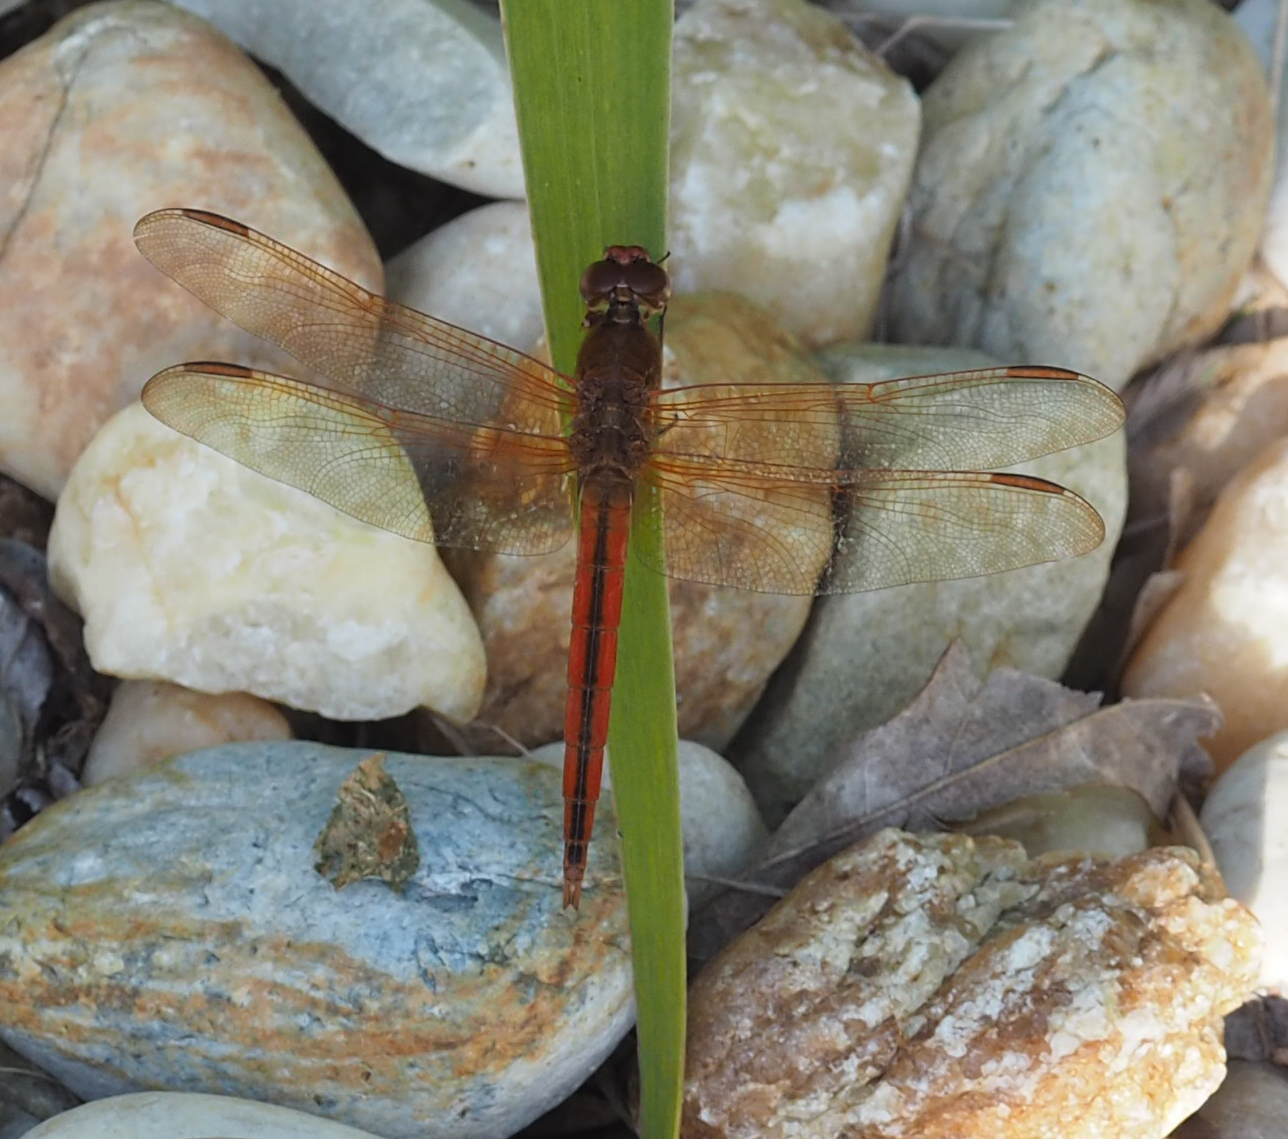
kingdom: Animalia
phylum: Arthropoda
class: Insecta
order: Odonata
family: Libellulidae
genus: Libellula
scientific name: Libellula needhami
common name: Needham's skimmer
